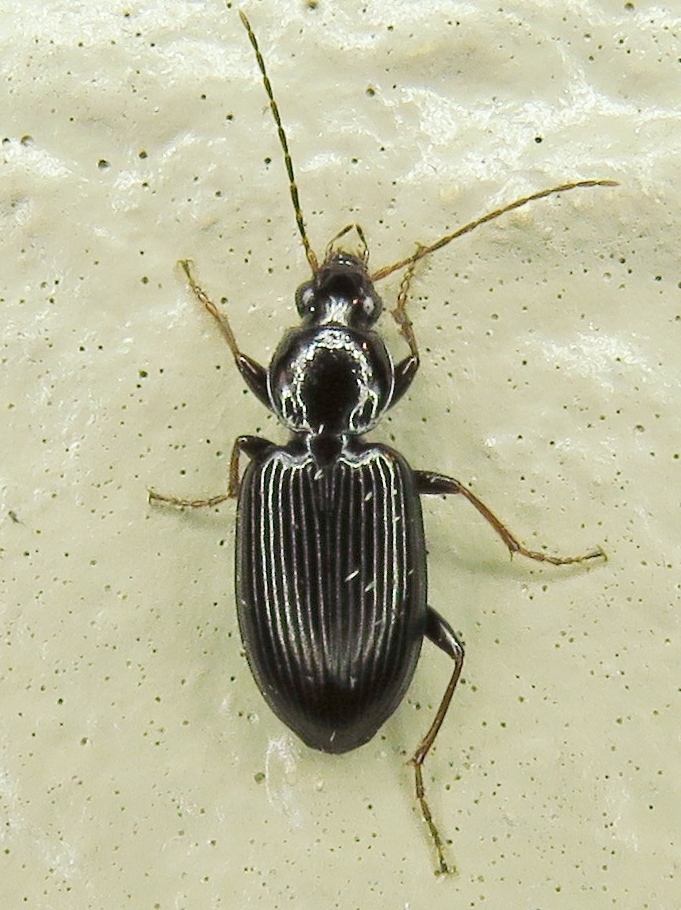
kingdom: Animalia
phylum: Arthropoda
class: Insecta
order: Coleoptera
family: Carabidae
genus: Agonum
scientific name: Agonum punctiforme
